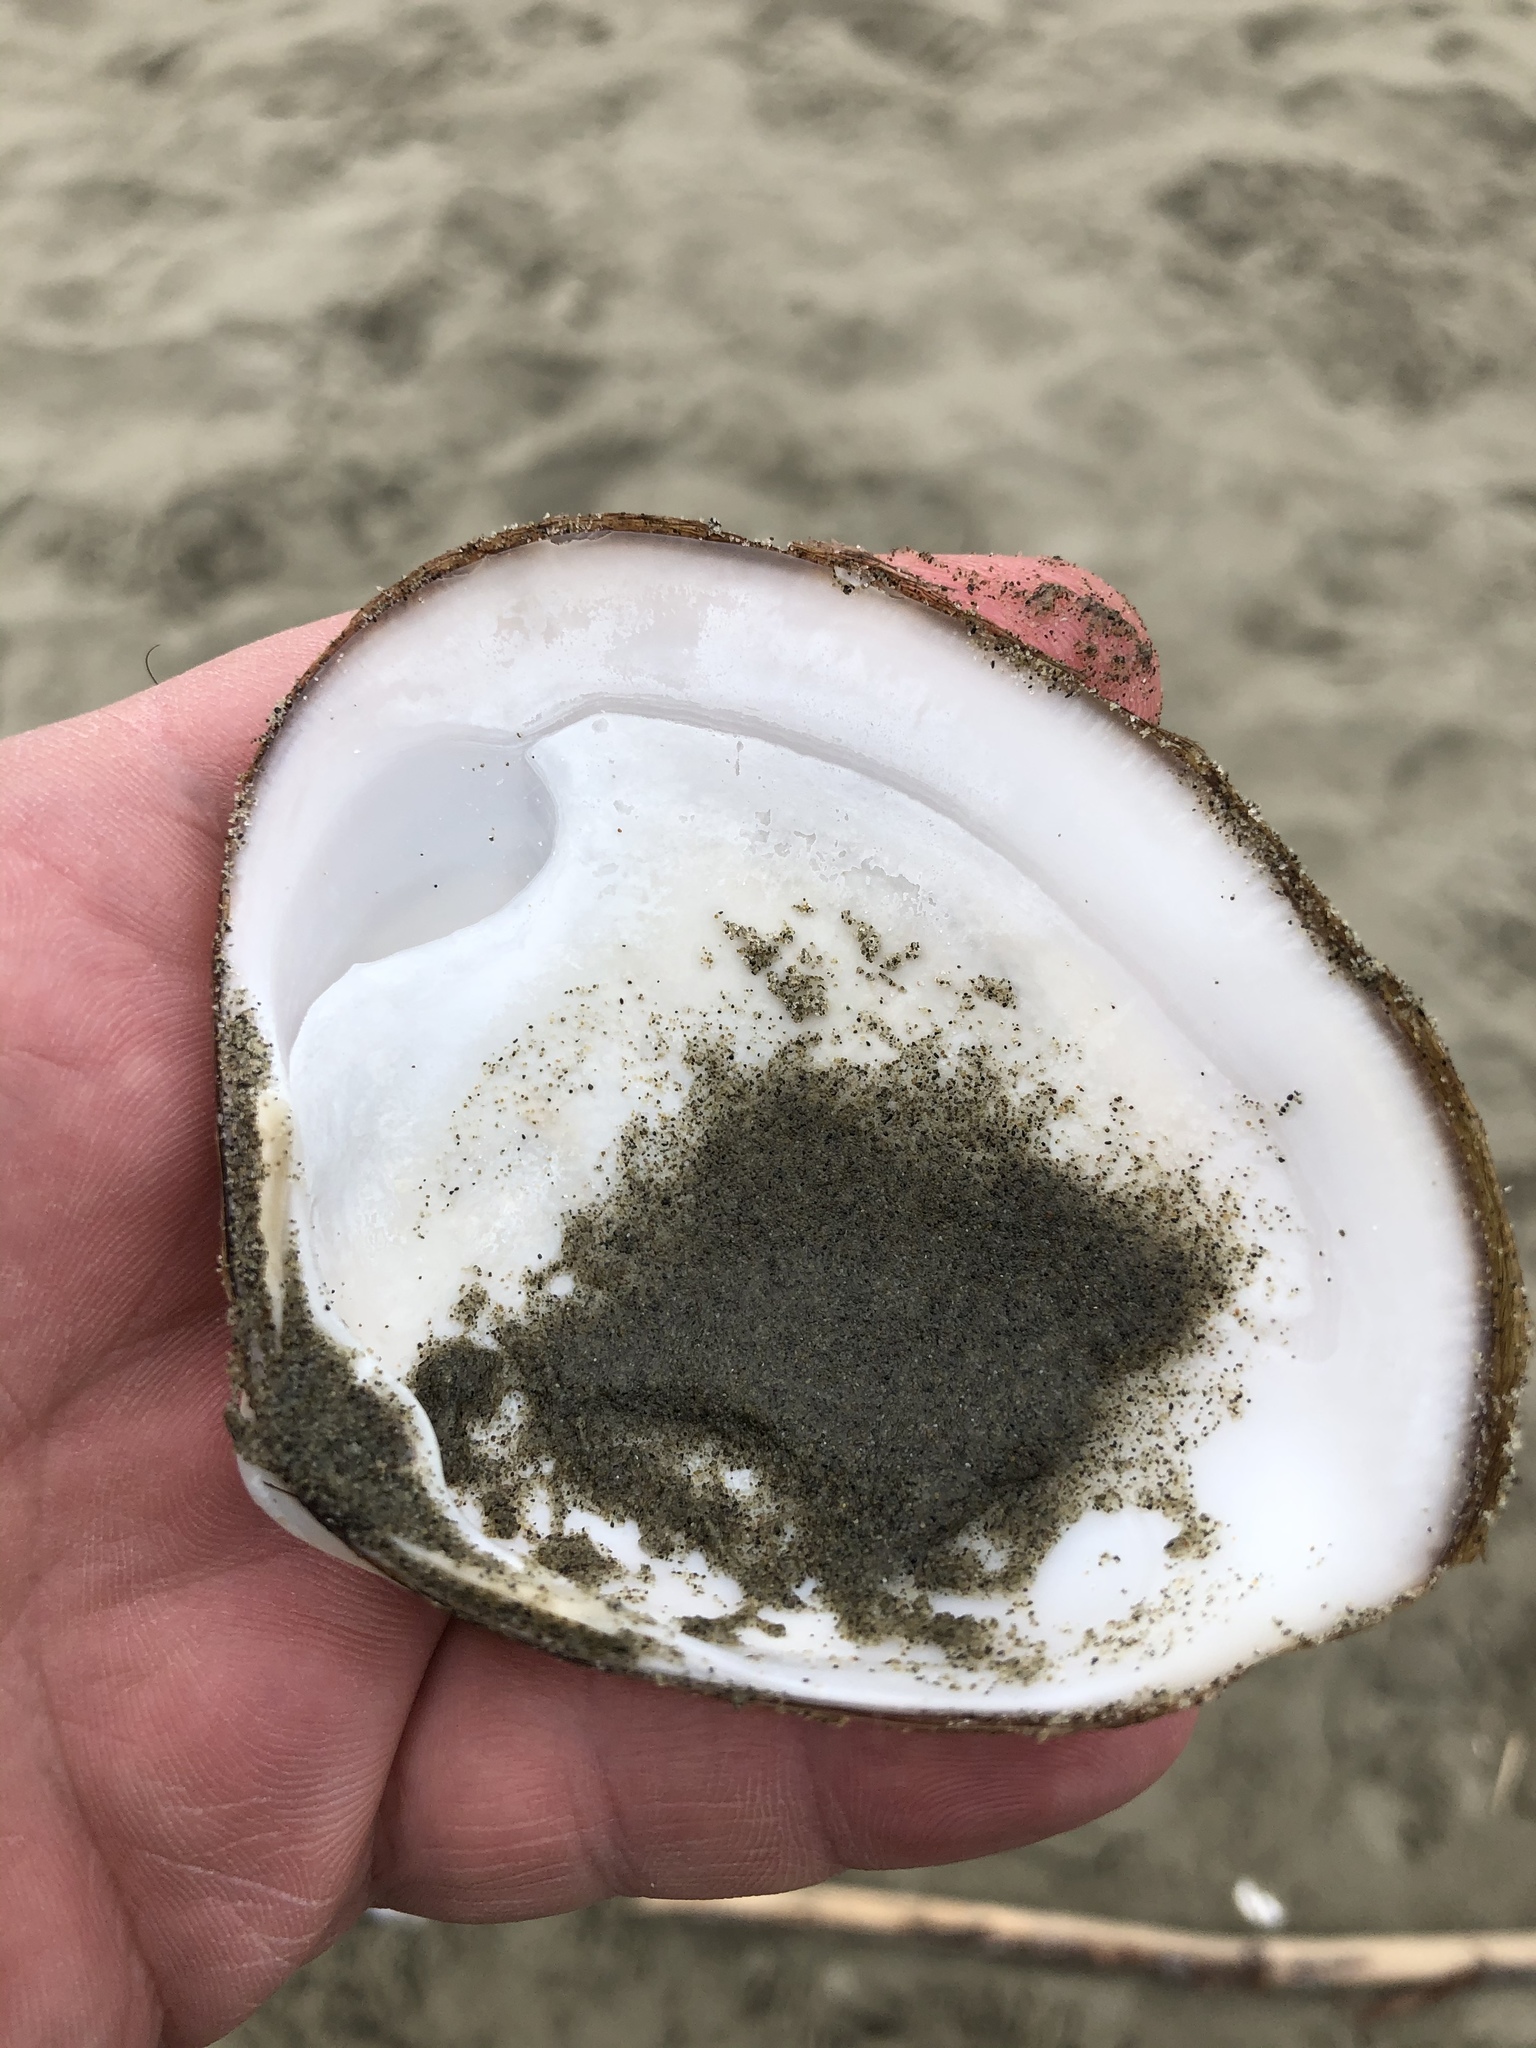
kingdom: Animalia
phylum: Mollusca
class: Bivalvia
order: Venerida
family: Mactridae
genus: Spisula
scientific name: Spisula murchisoni
